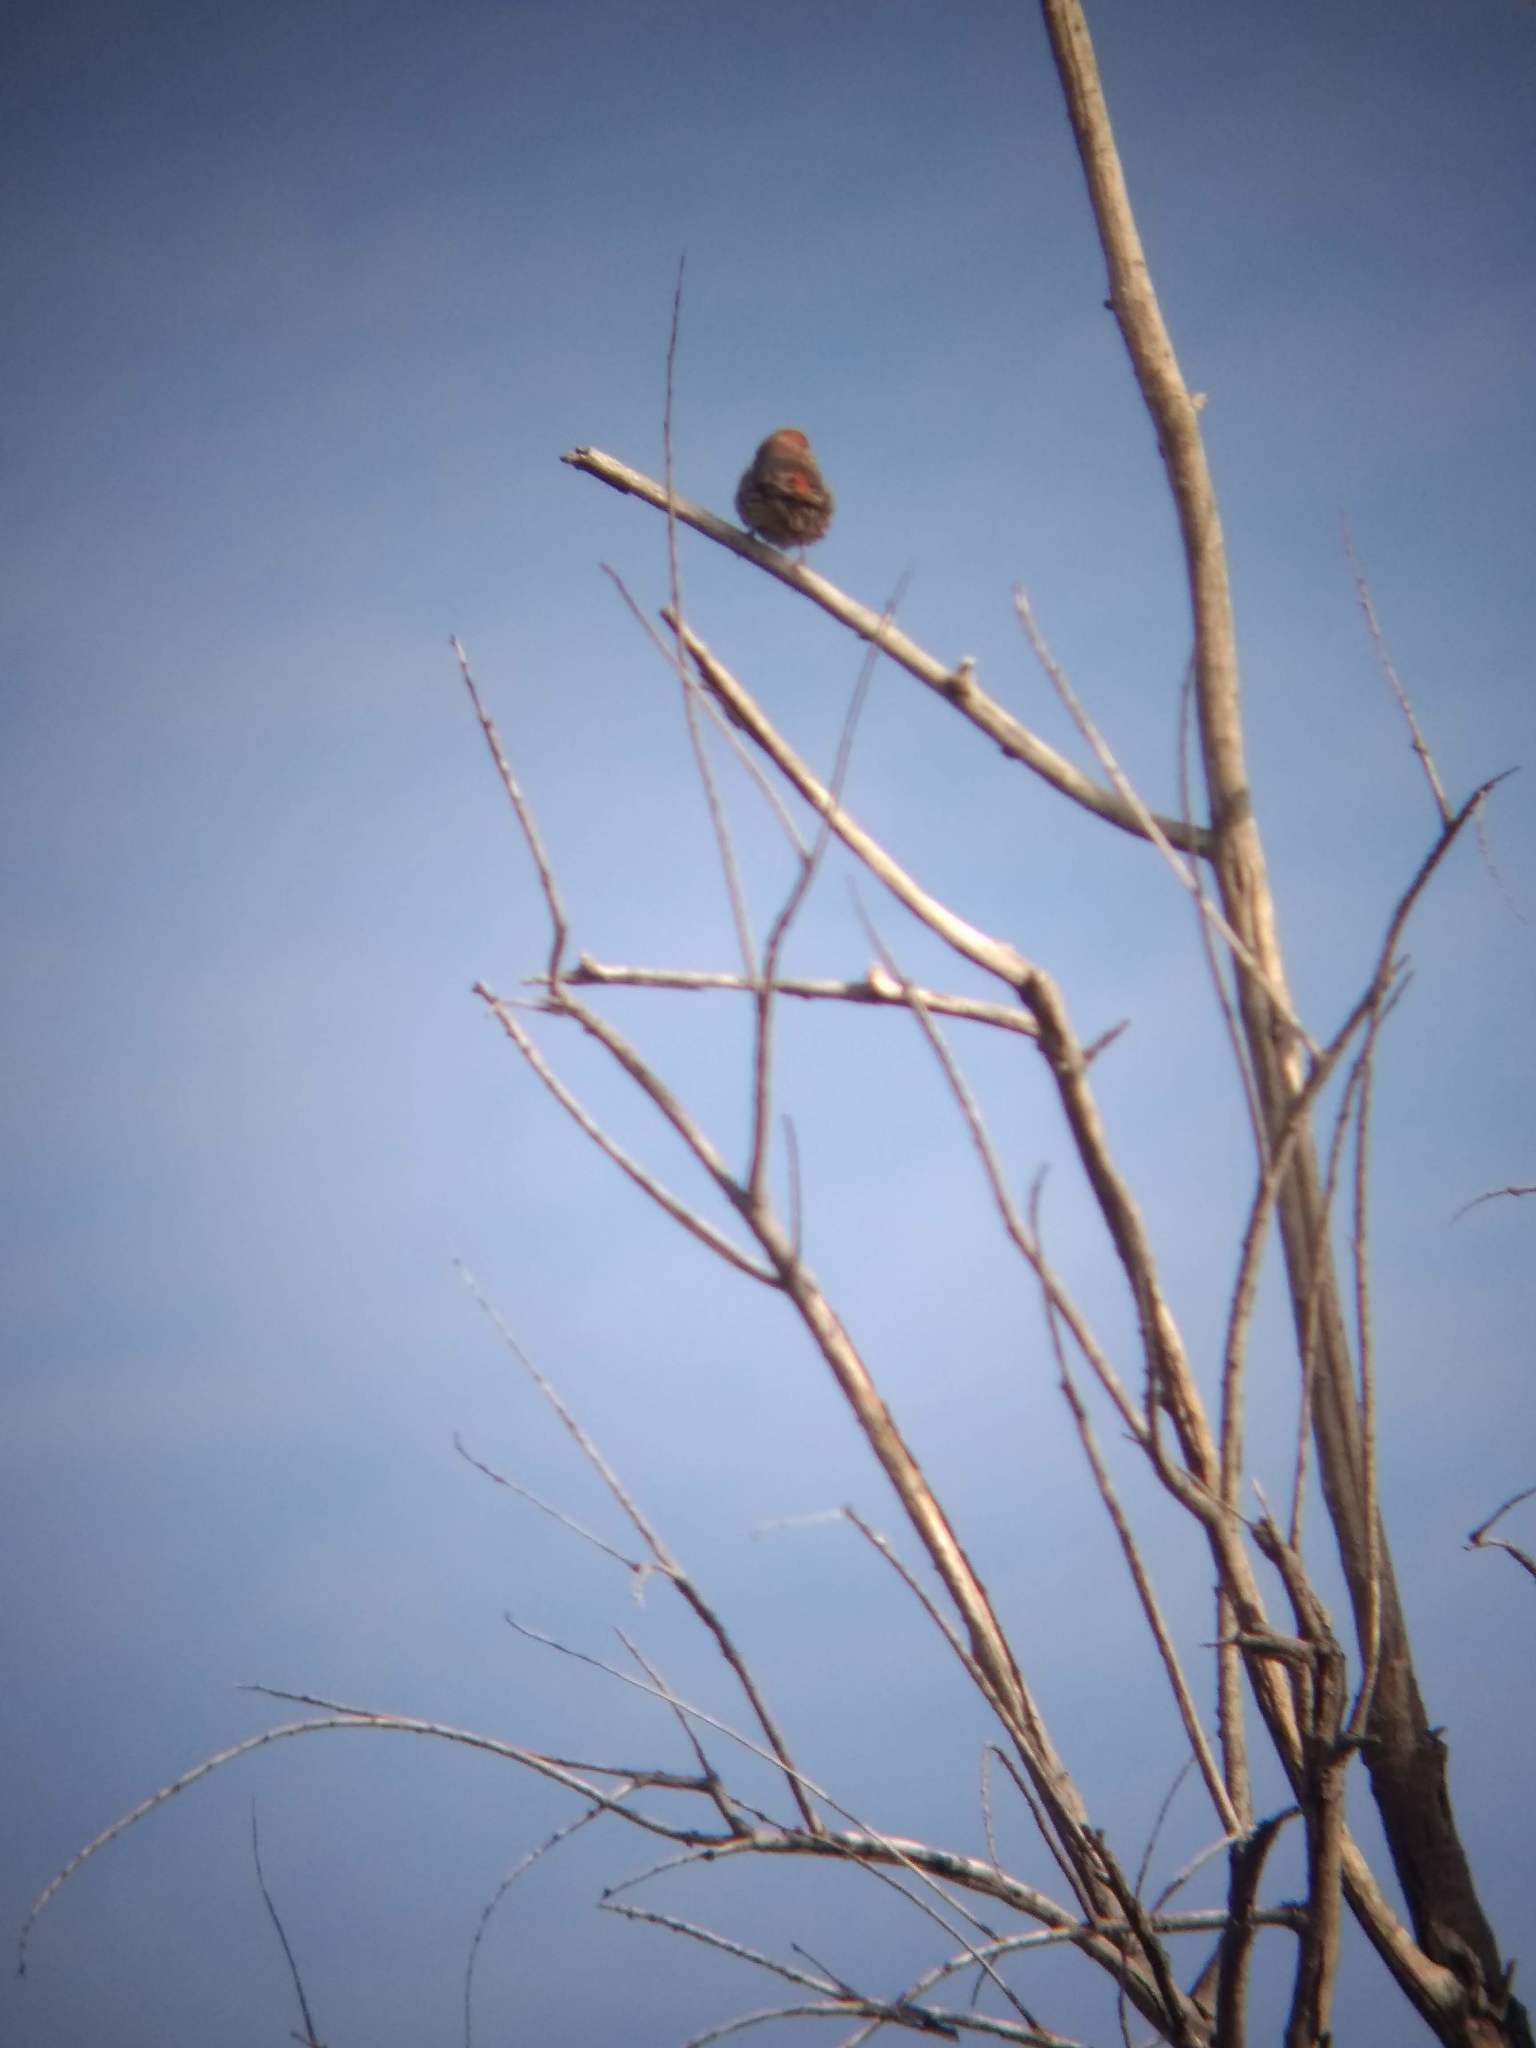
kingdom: Animalia
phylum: Chordata
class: Aves
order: Passeriformes
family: Fringillidae
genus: Haemorhous
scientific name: Haemorhous mexicanus
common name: House finch
